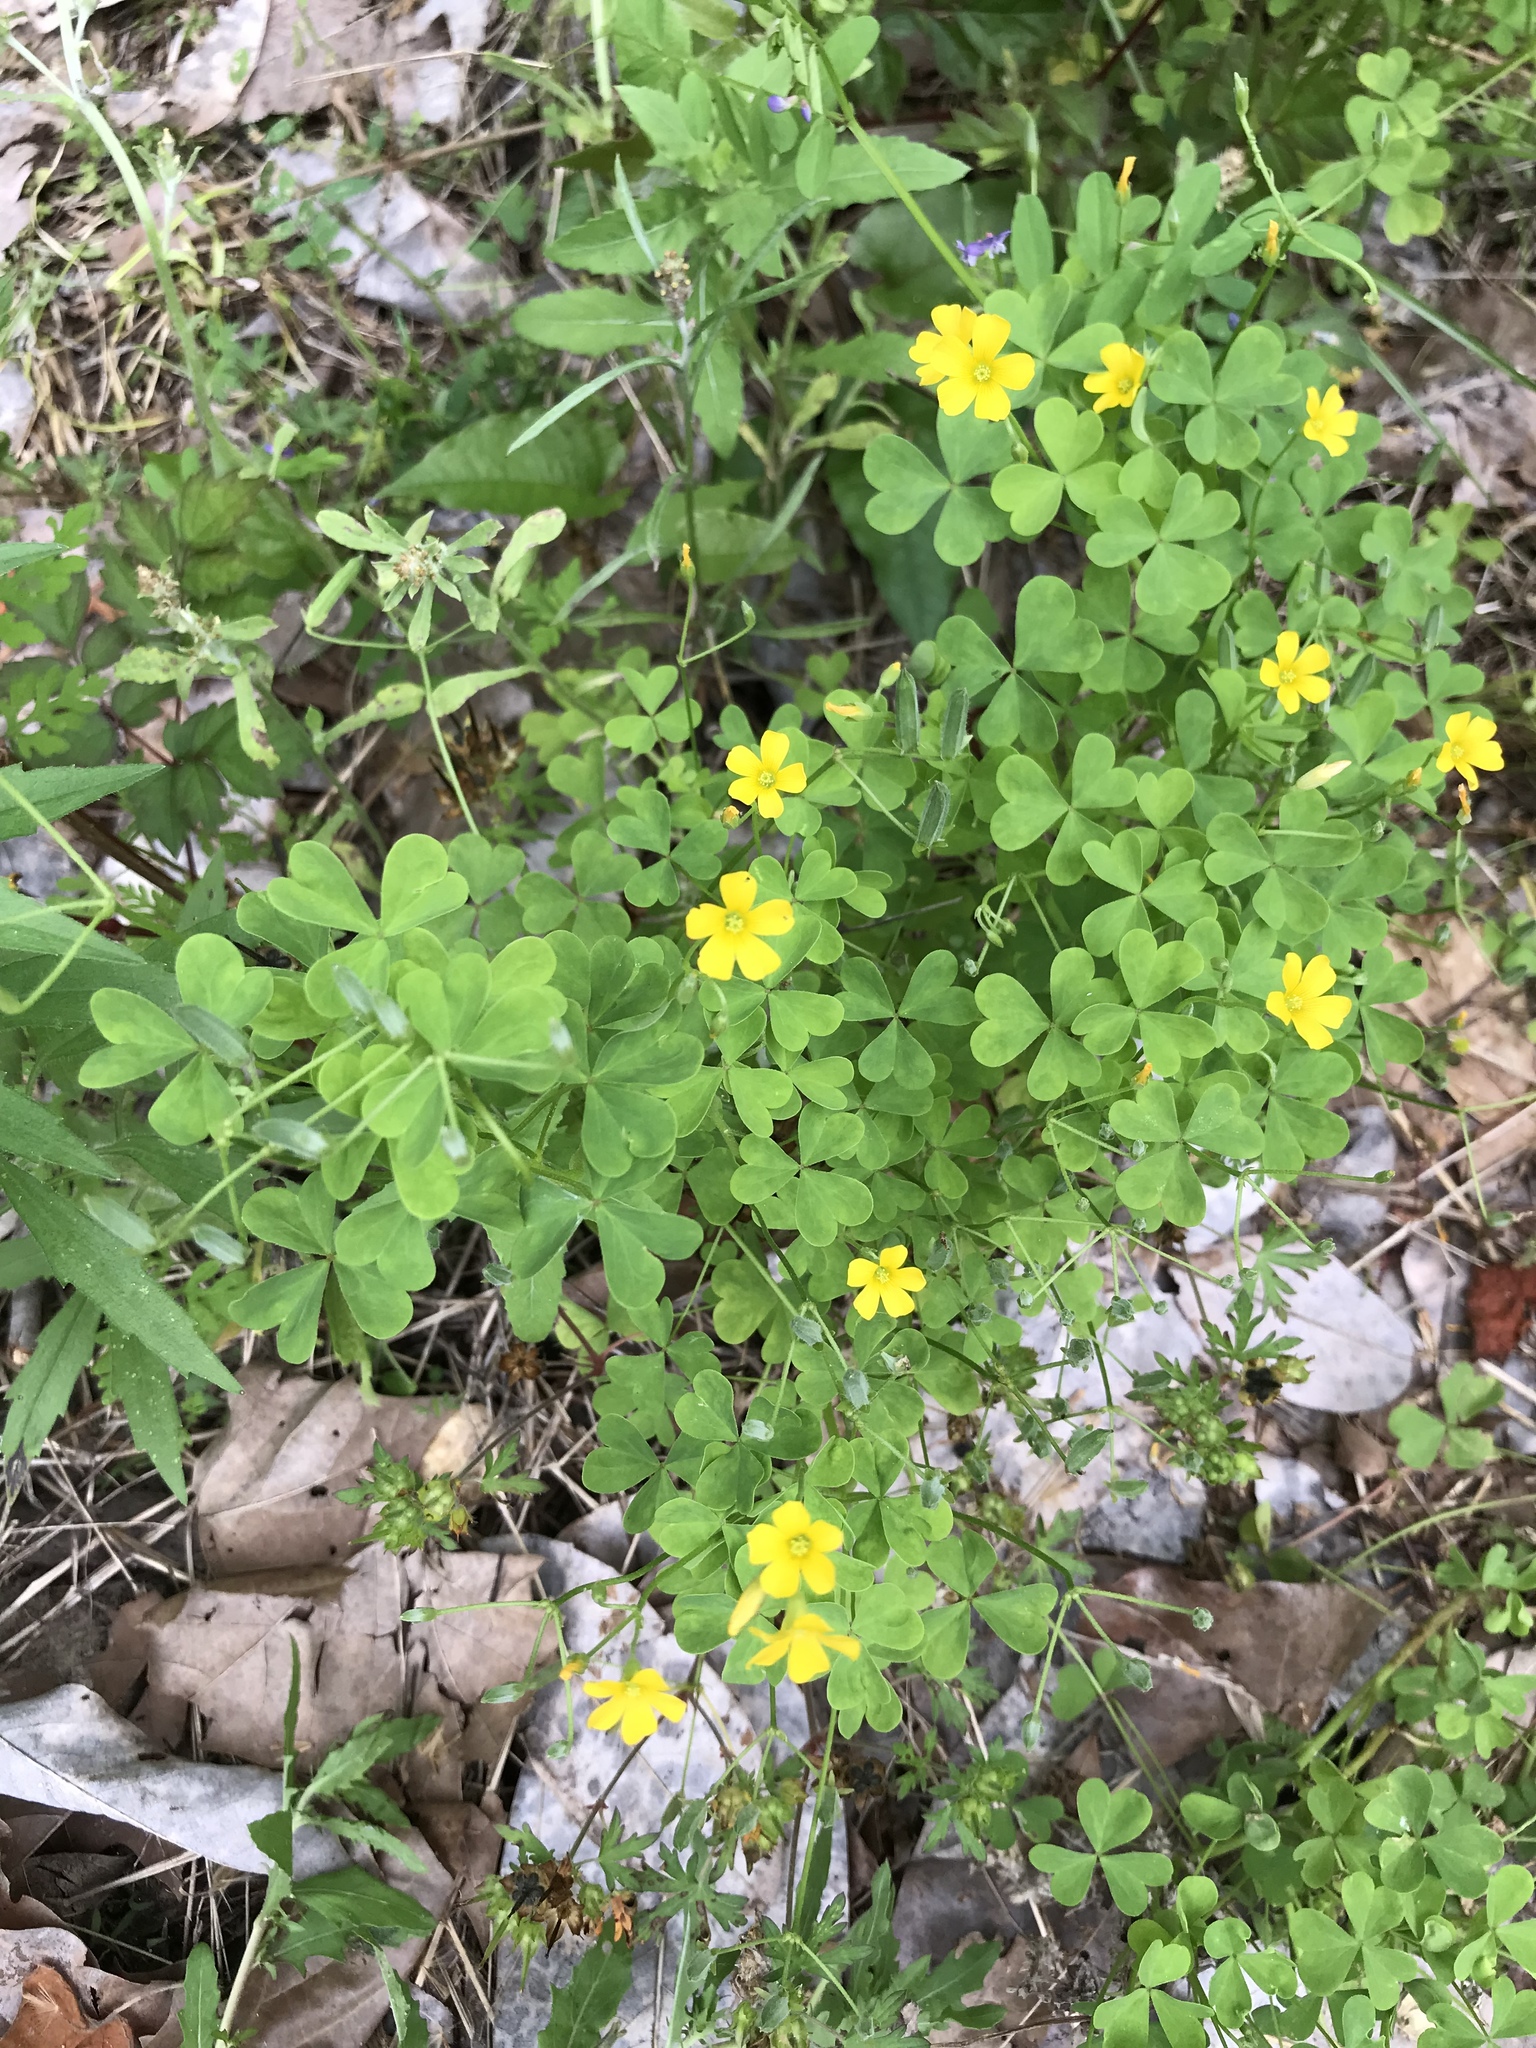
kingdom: Plantae
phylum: Tracheophyta
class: Magnoliopsida
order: Oxalidales
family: Oxalidaceae
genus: Oxalis
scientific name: Oxalis dillenii
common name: Sussex yellow-sorrel
